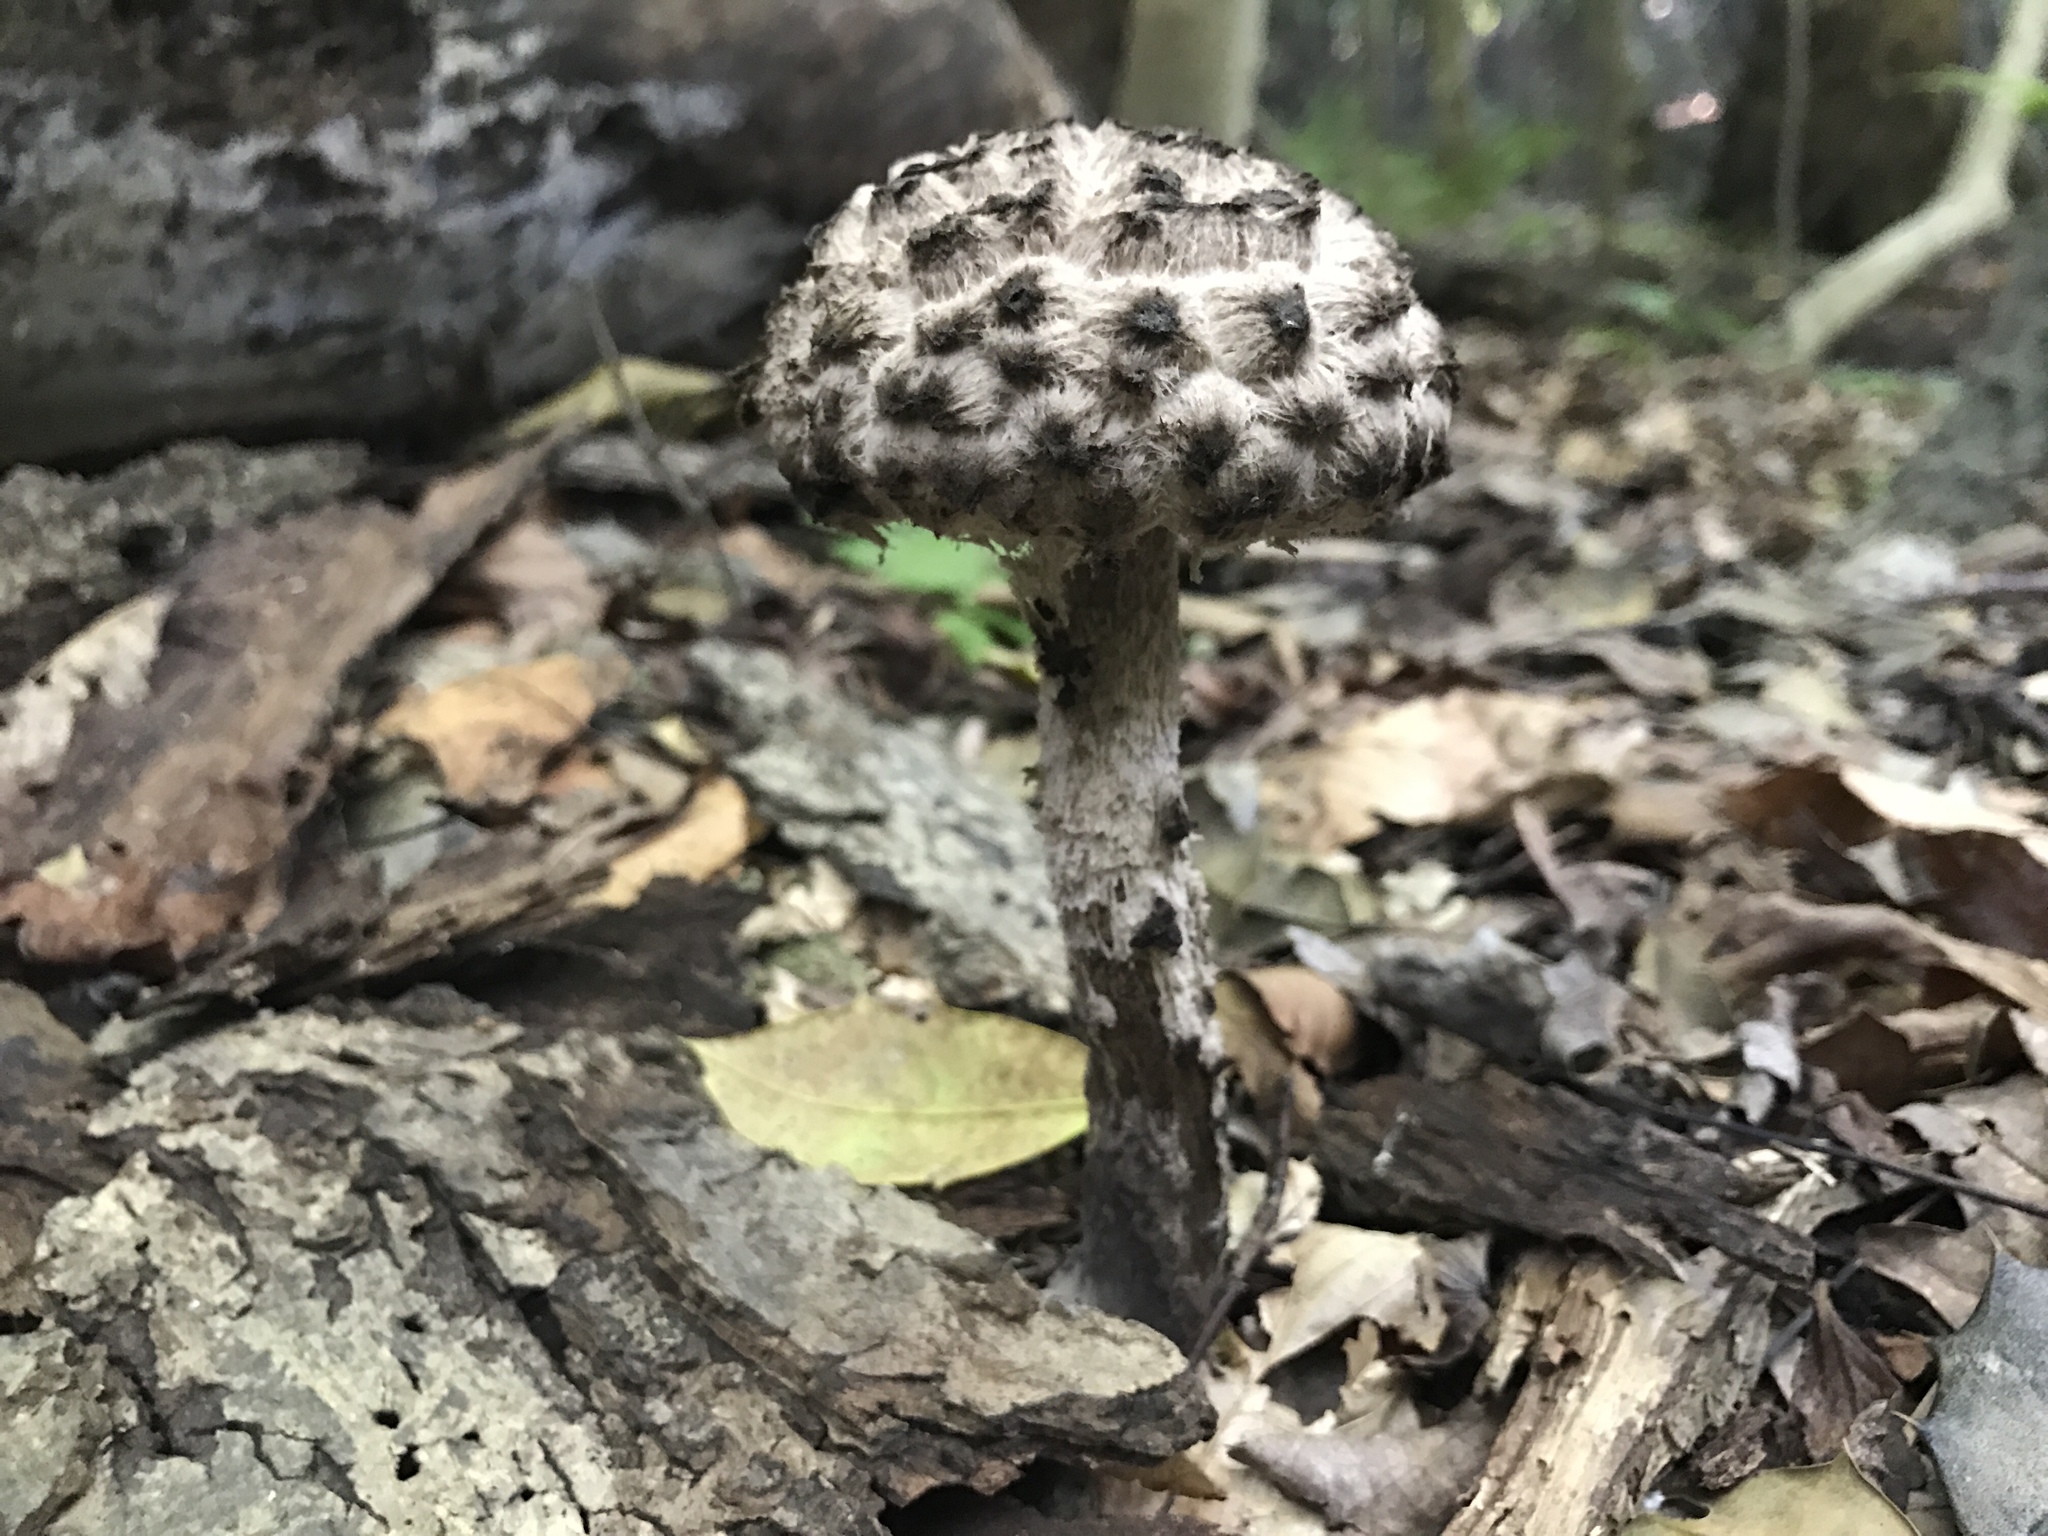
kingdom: Fungi
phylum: Basidiomycota
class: Agaricomycetes
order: Boletales
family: Boletaceae
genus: Strobilomyces
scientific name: Strobilomyces strobilaceus
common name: Old man of the woods
